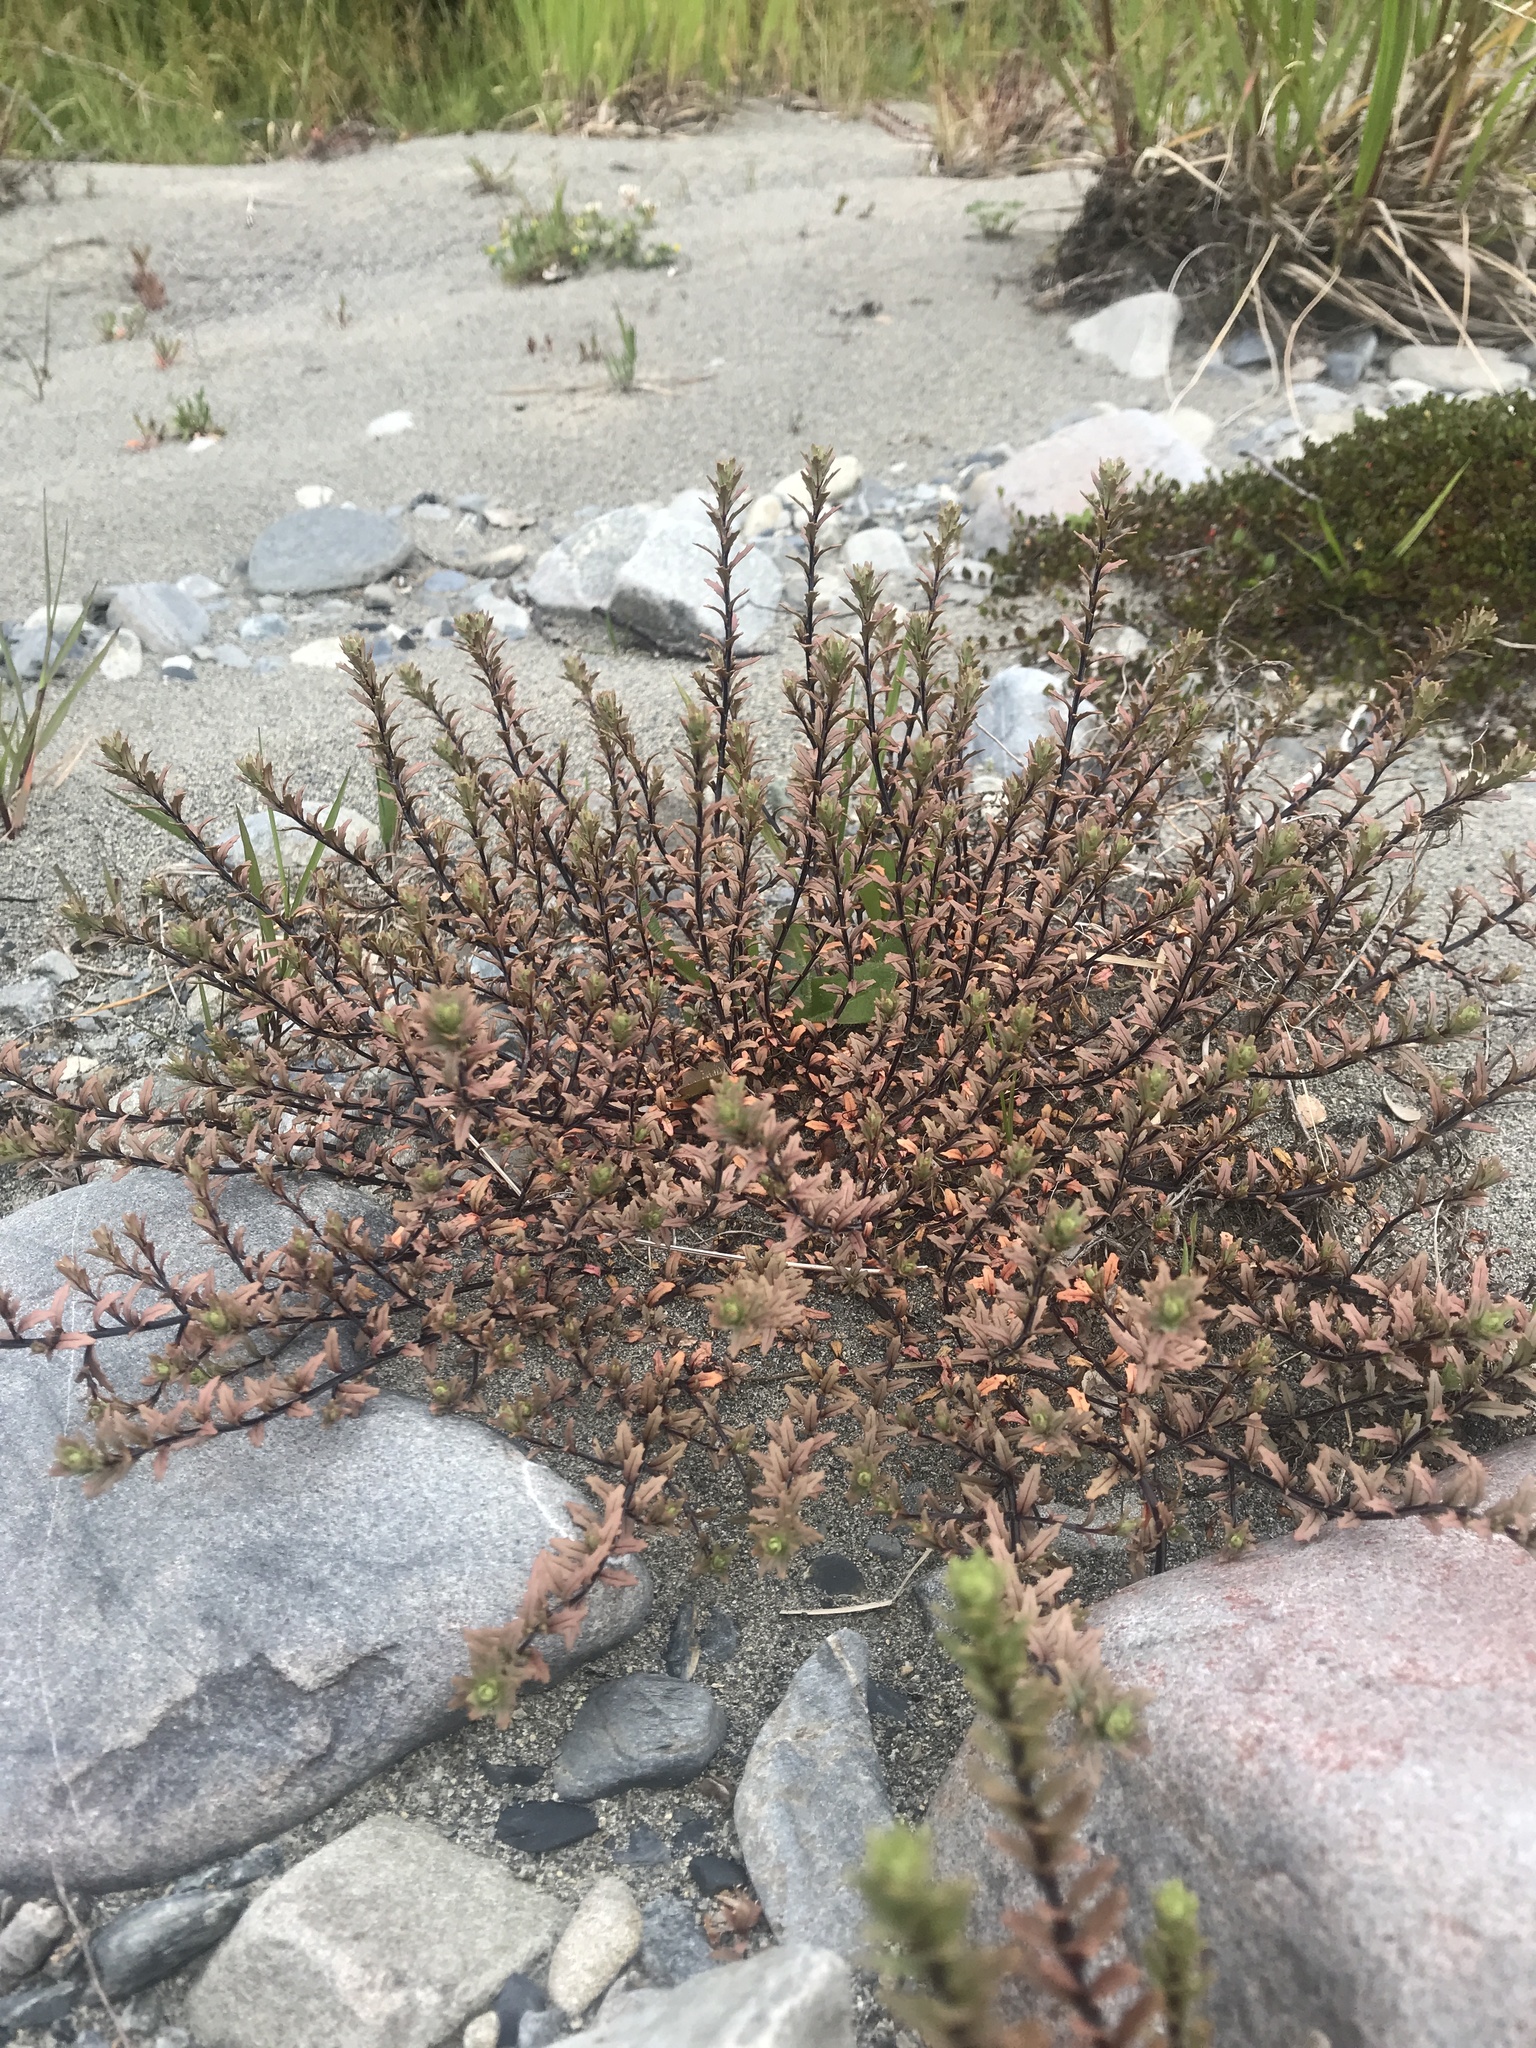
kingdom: Plantae
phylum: Tracheophyta
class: Magnoliopsida
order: Myrtales
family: Onagraceae
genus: Epilobium
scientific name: Epilobium melanocaulon
